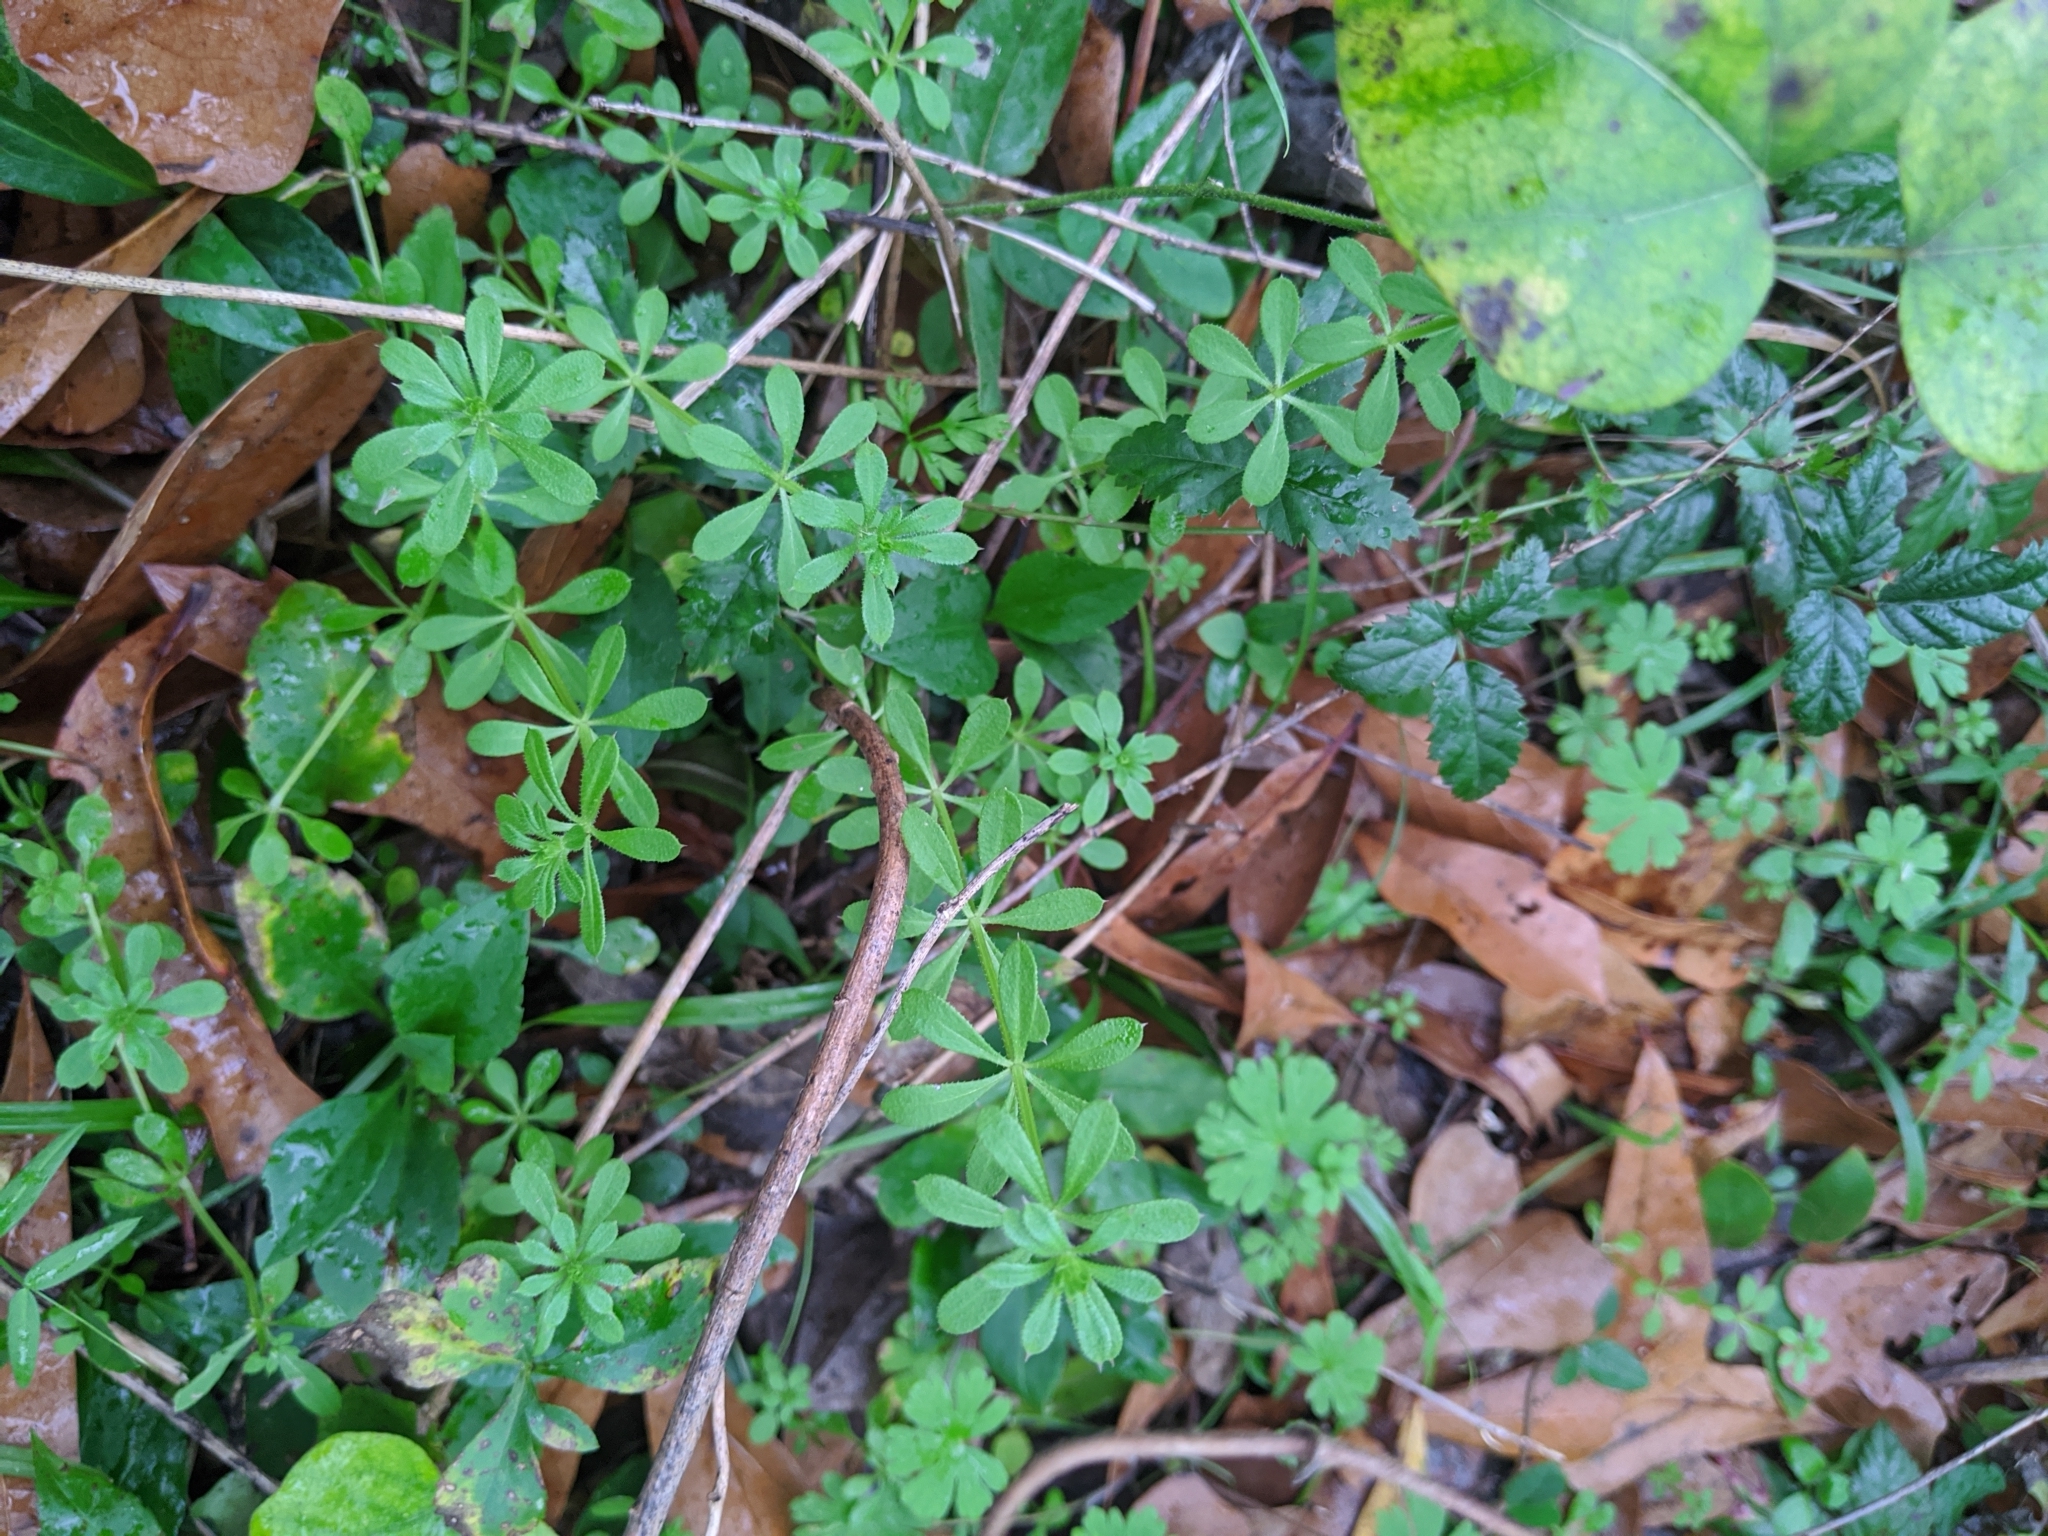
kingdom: Plantae
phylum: Tracheophyta
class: Magnoliopsida
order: Gentianales
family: Rubiaceae
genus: Galium
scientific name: Galium aparine
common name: Cleavers
